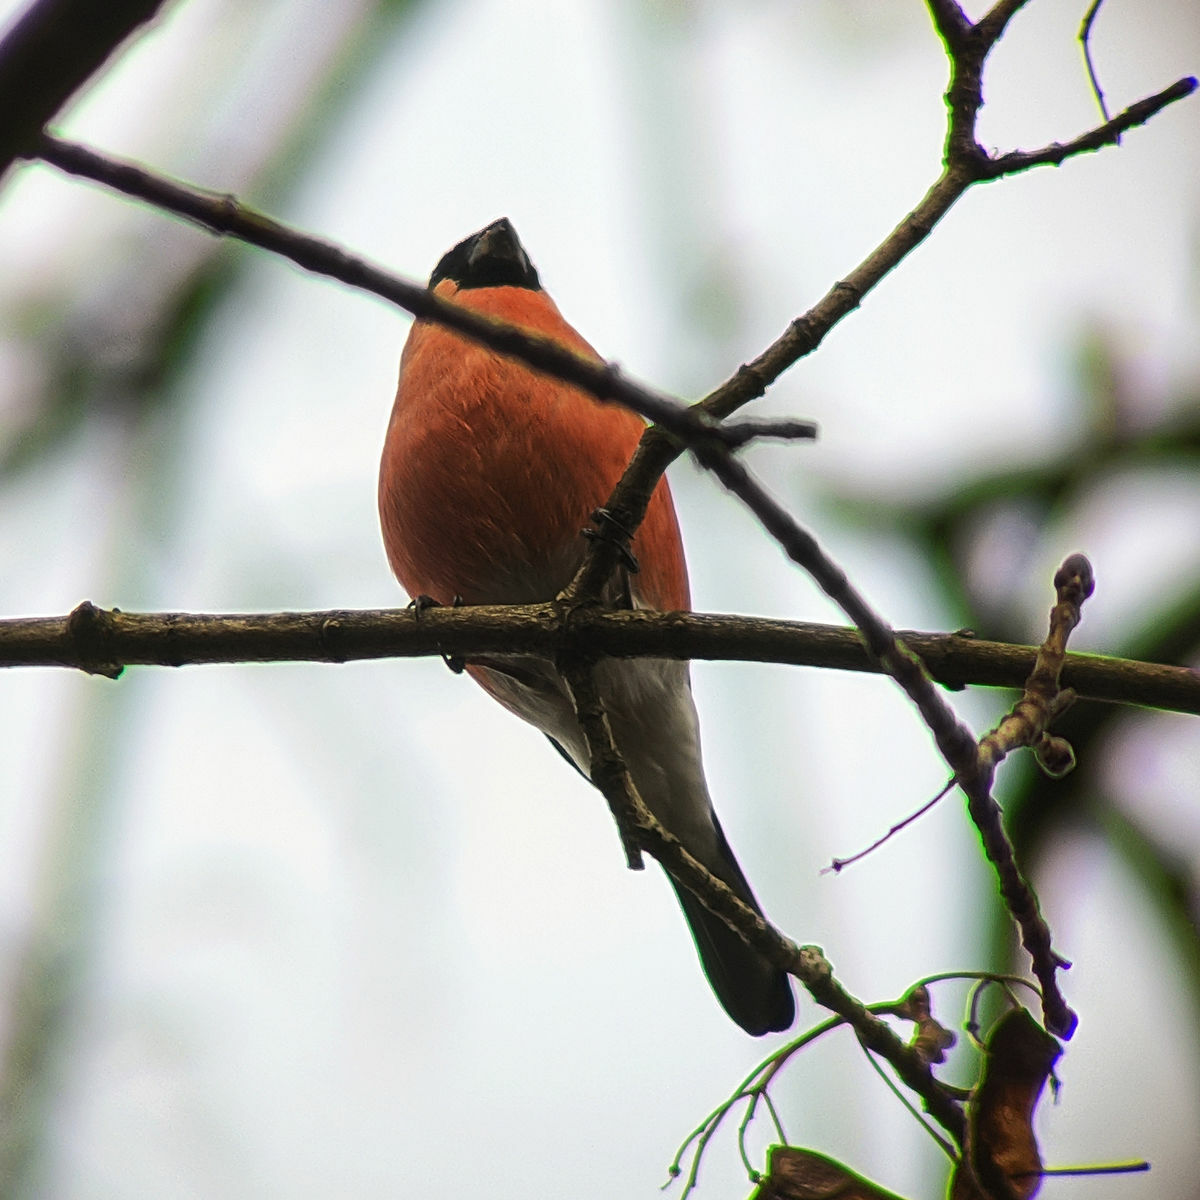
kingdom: Animalia
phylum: Chordata
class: Aves
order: Passeriformes
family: Fringillidae
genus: Pyrrhula
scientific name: Pyrrhula pyrrhula
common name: Eurasian bullfinch
